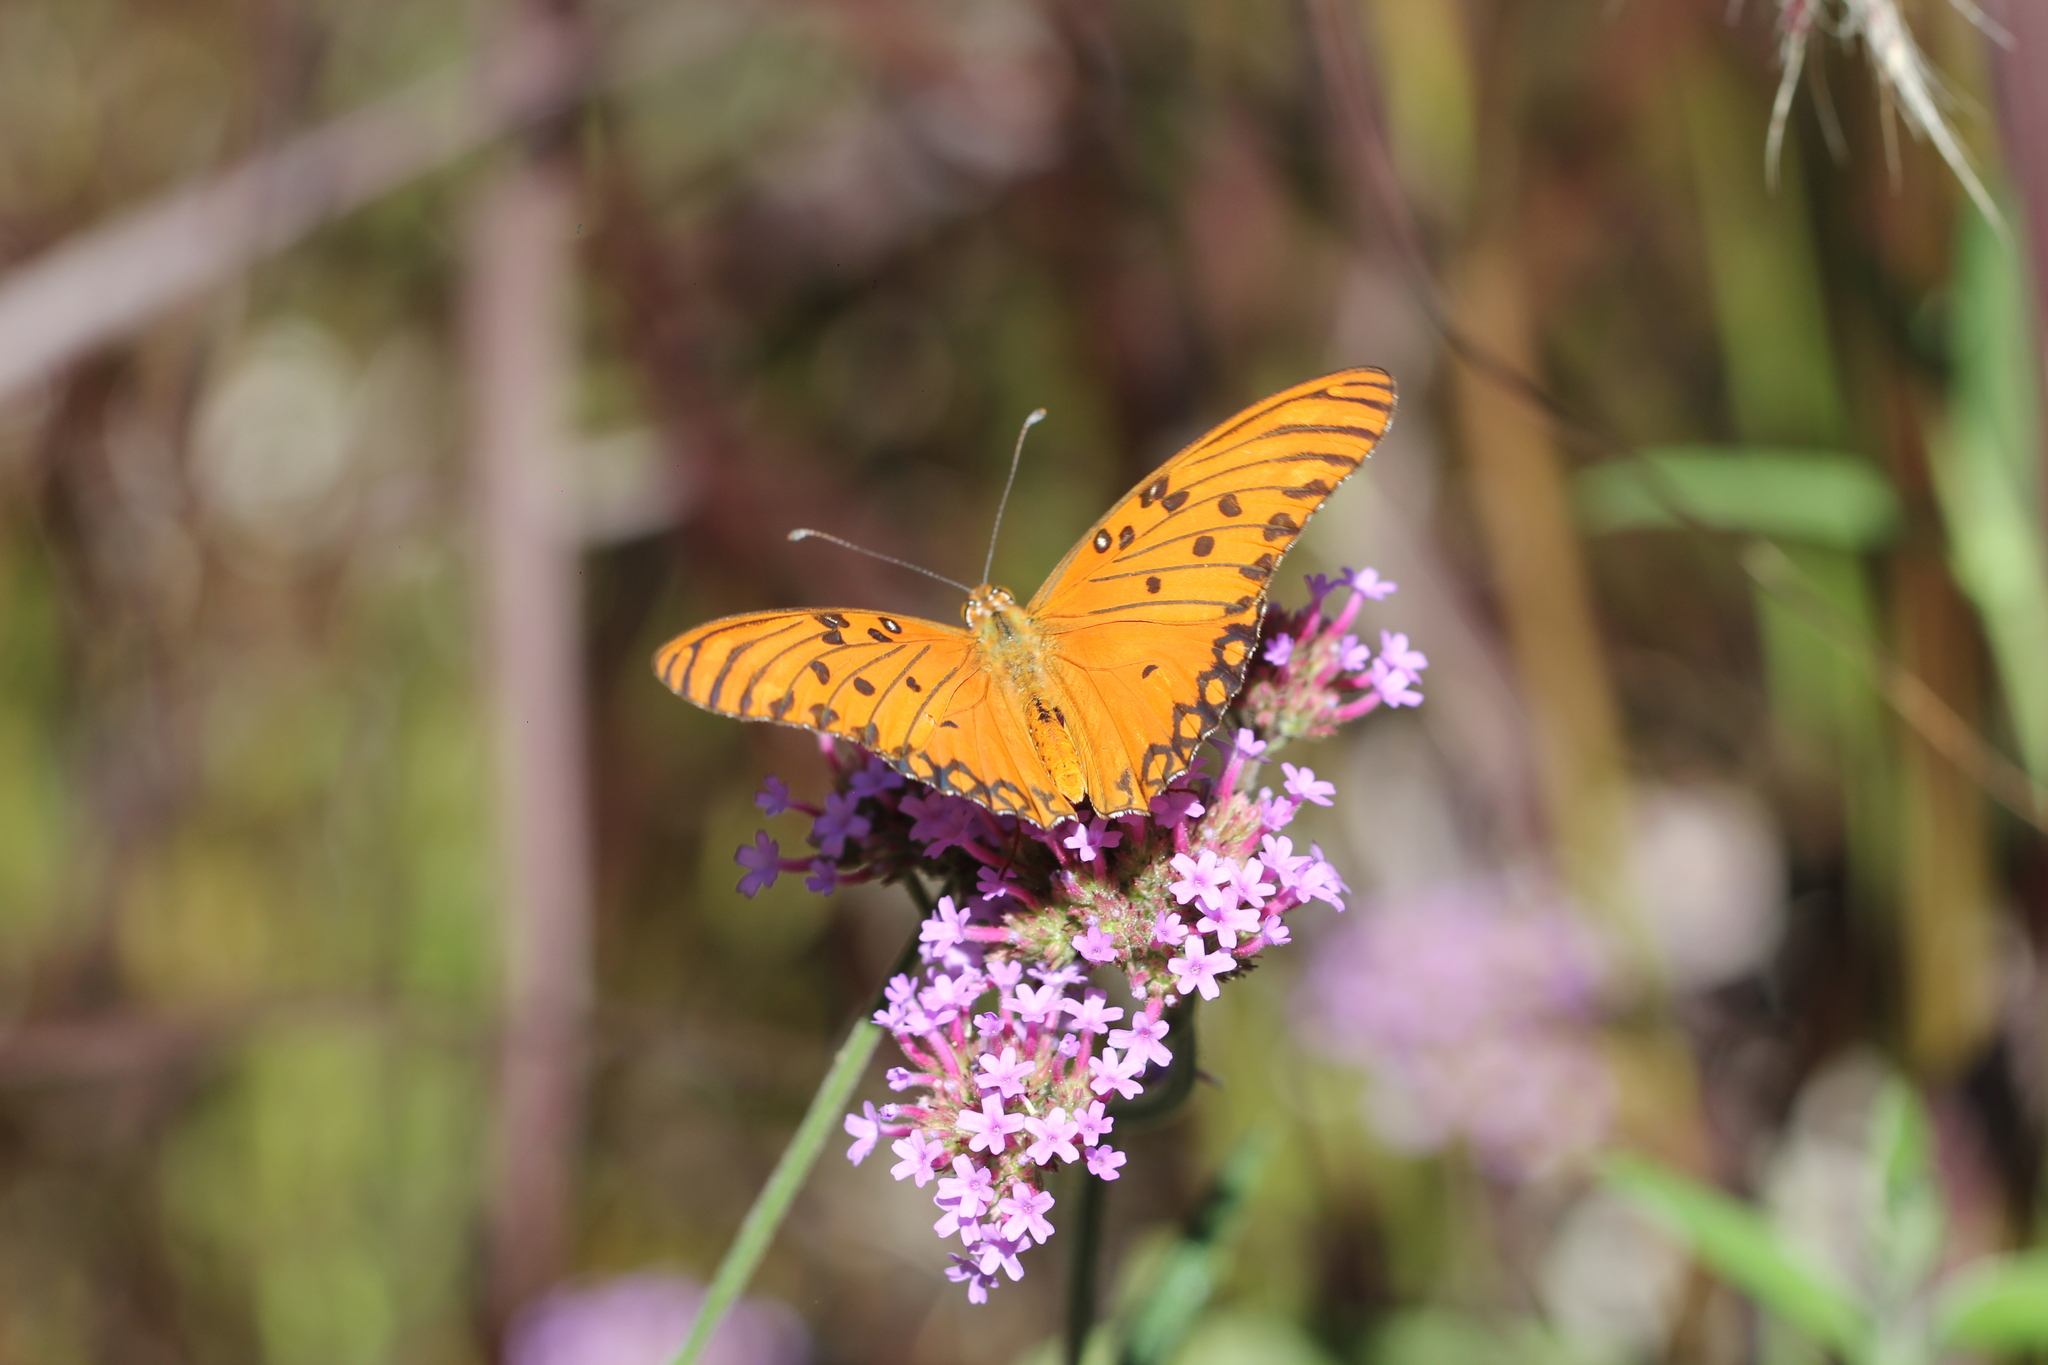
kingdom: Animalia
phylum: Arthropoda
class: Insecta
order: Lepidoptera
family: Nymphalidae
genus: Dione
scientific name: Dione vanillae
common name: Gulf fritillary
